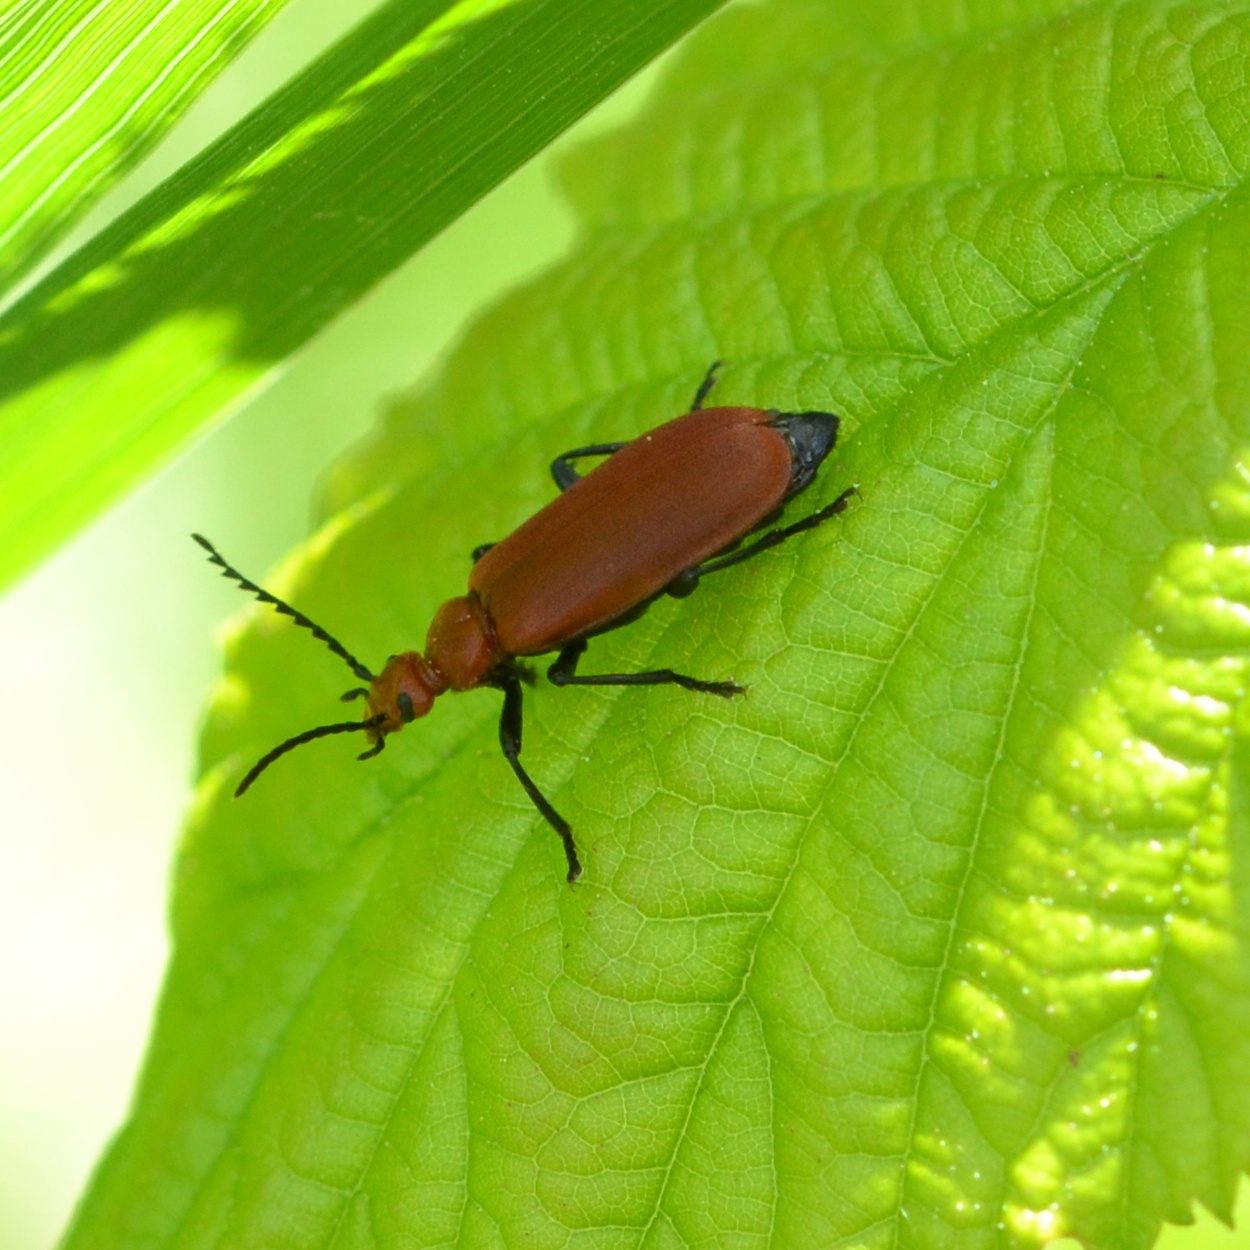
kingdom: Animalia
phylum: Arthropoda
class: Insecta
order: Coleoptera
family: Pyrochroidae
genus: Pyrochroa
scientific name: Pyrochroa serraticornis
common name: Red-headed cardinal beetle
